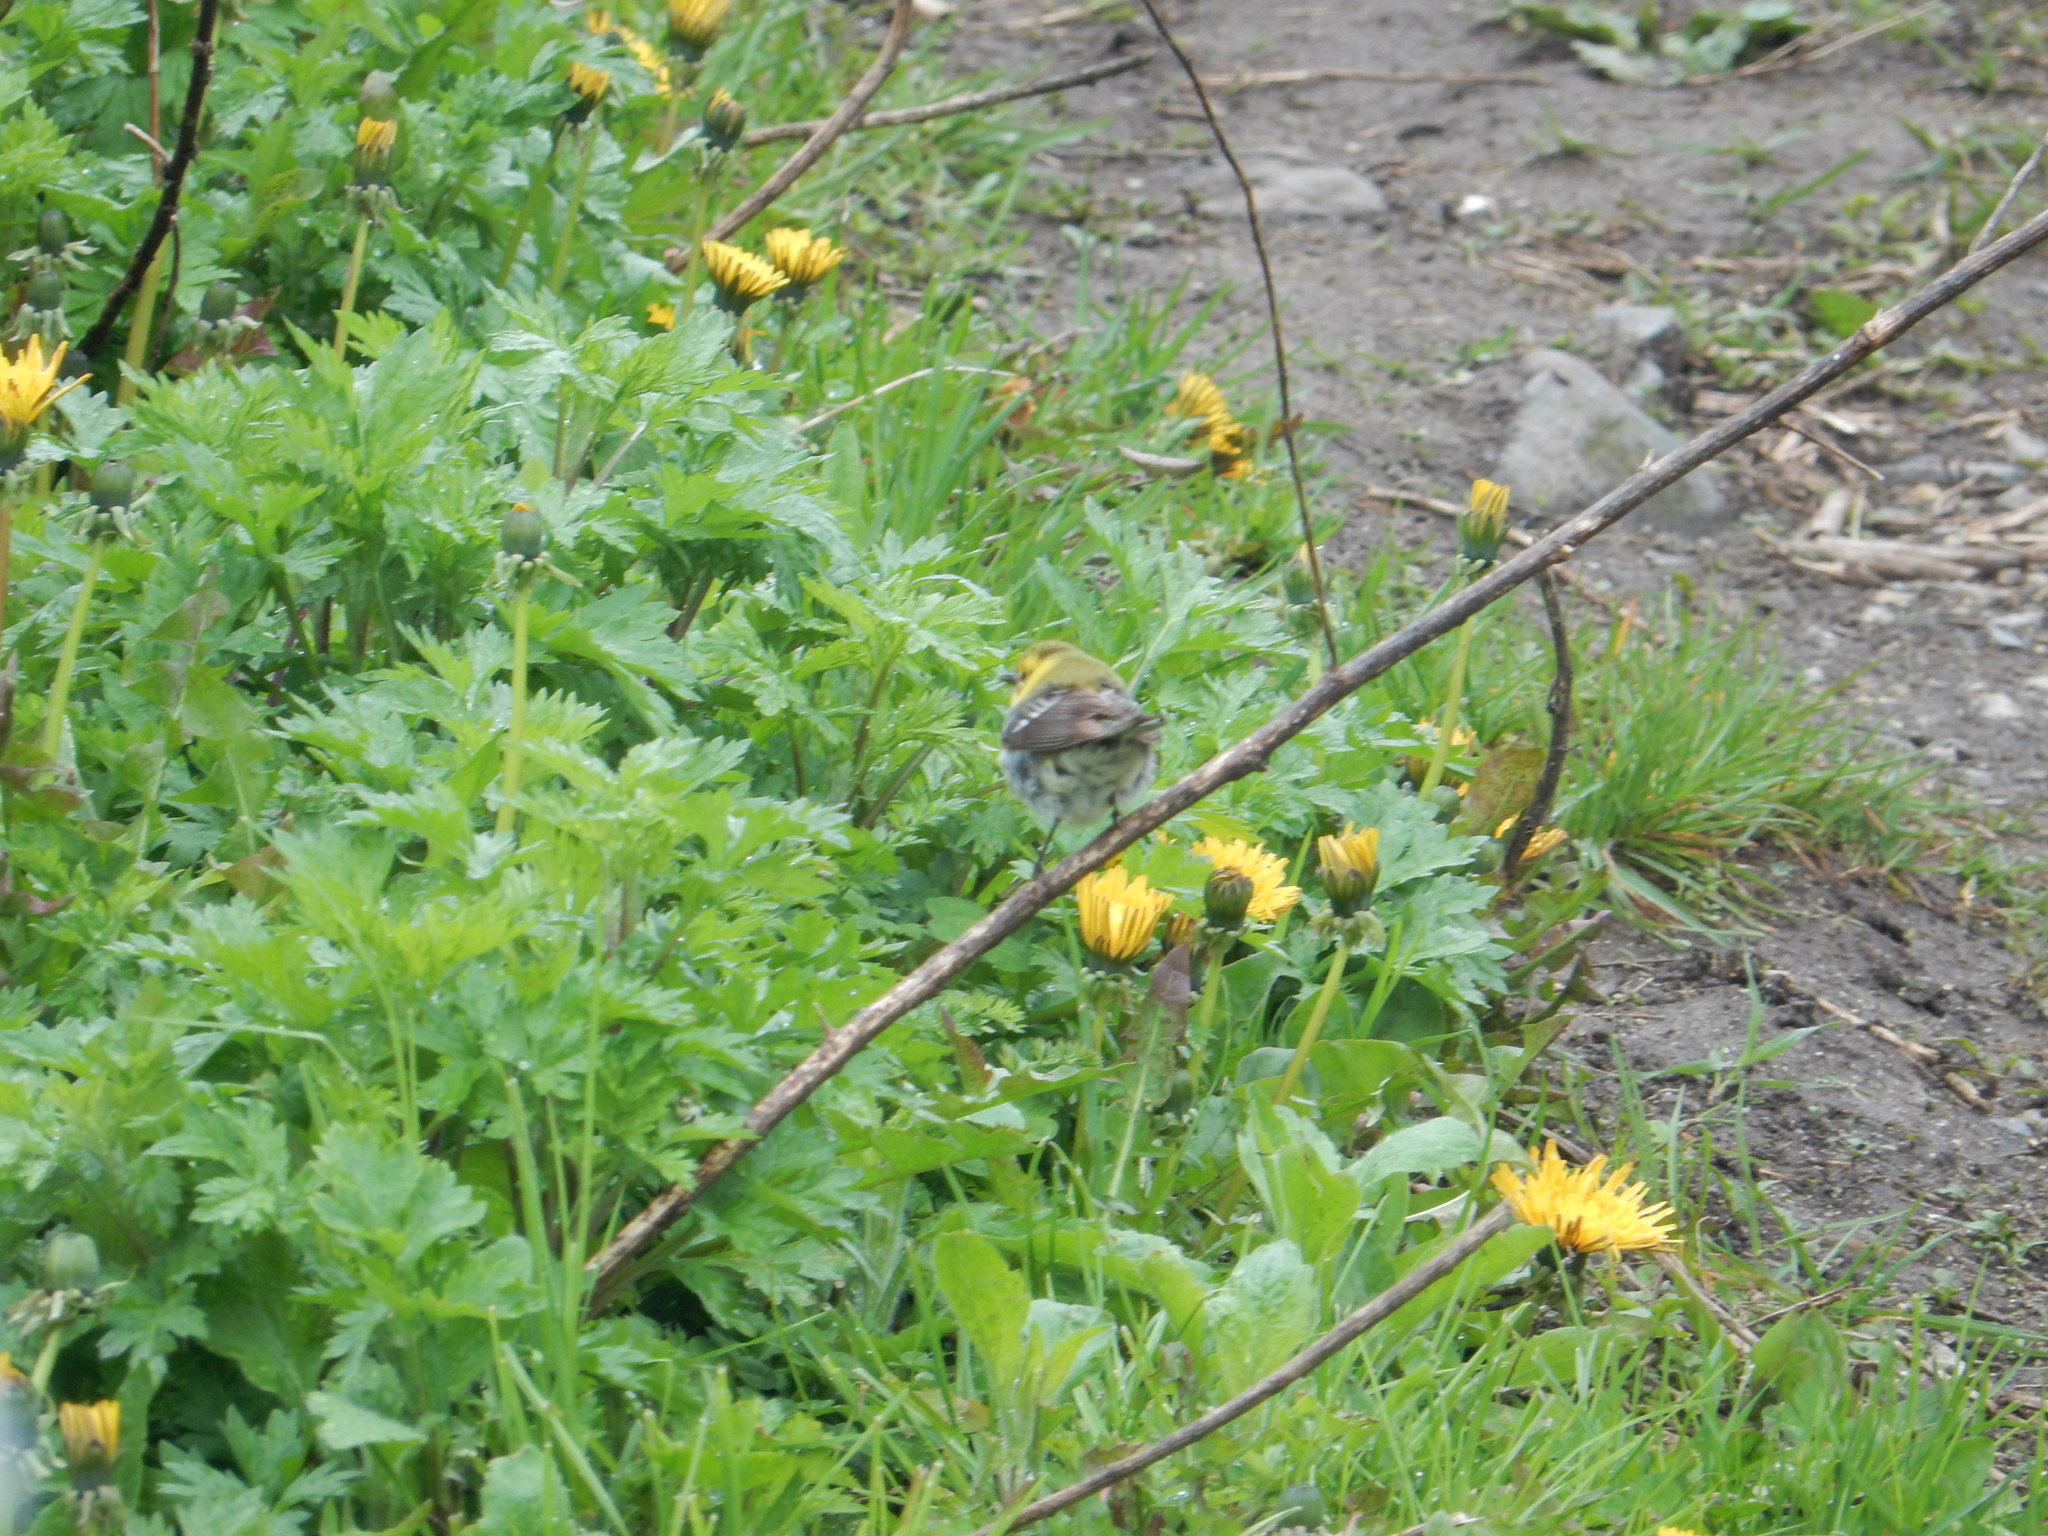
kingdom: Animalia
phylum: Chordata
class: Aves
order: Passeriformes
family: Parulidae
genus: Setophaga
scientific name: Setophaga virens
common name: Black-throated green warbler
